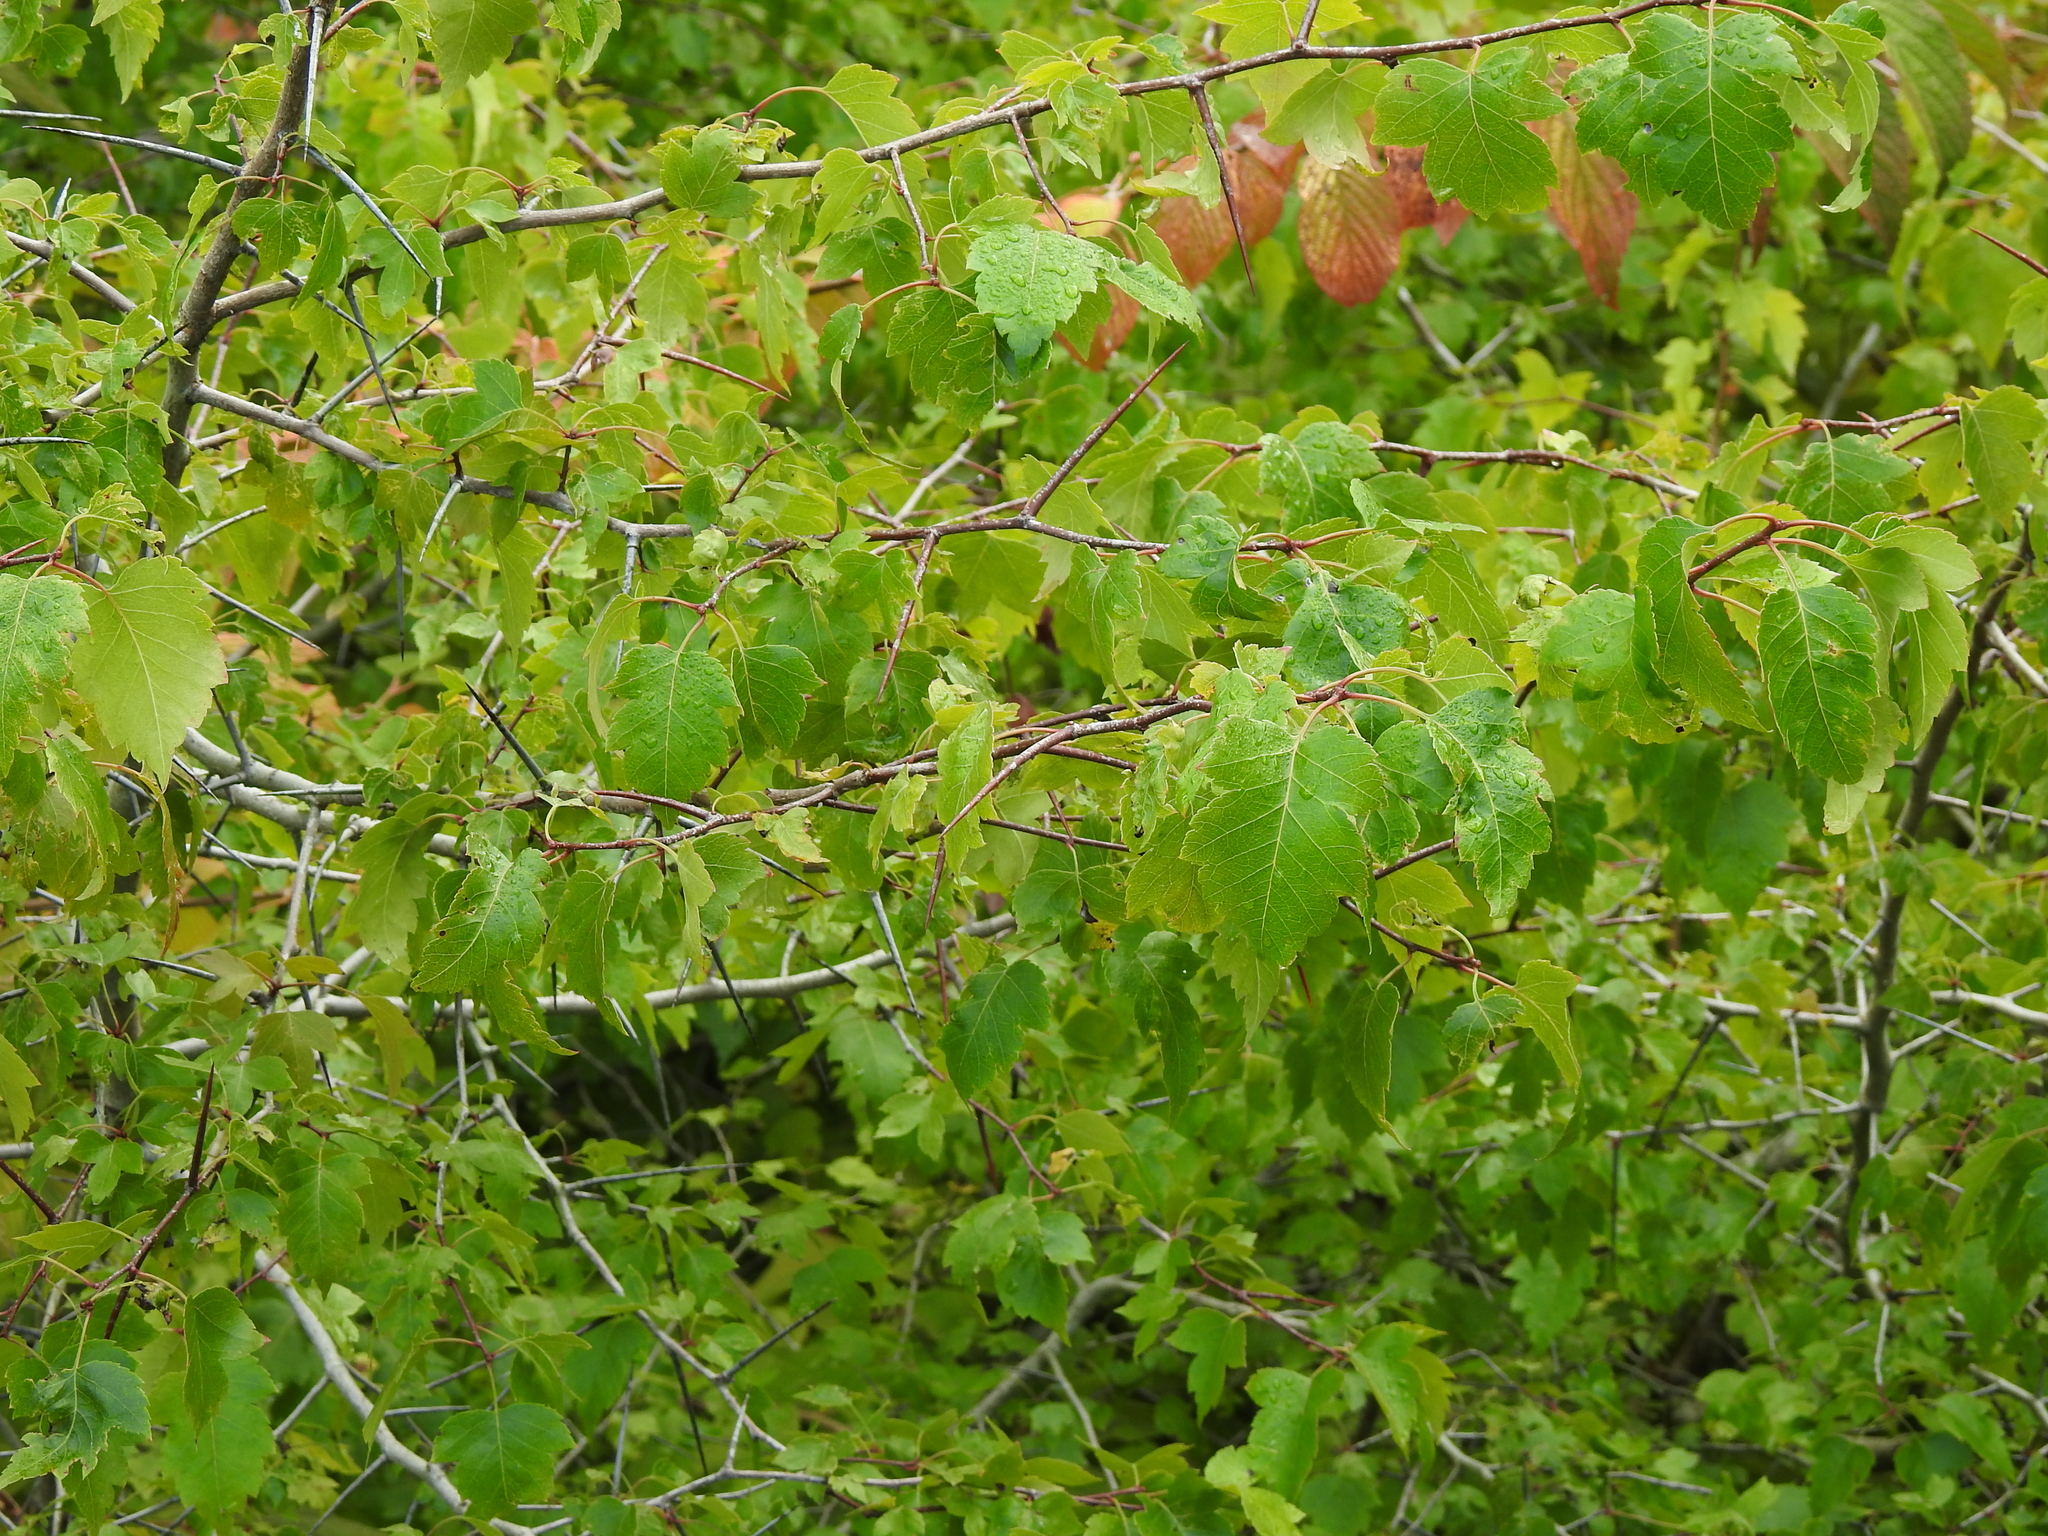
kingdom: Plantae
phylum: Tracheophyta
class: Magnoliopsida
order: Fagales
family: Betulaceae
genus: Betula
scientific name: Betula pendula
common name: Silver birch
